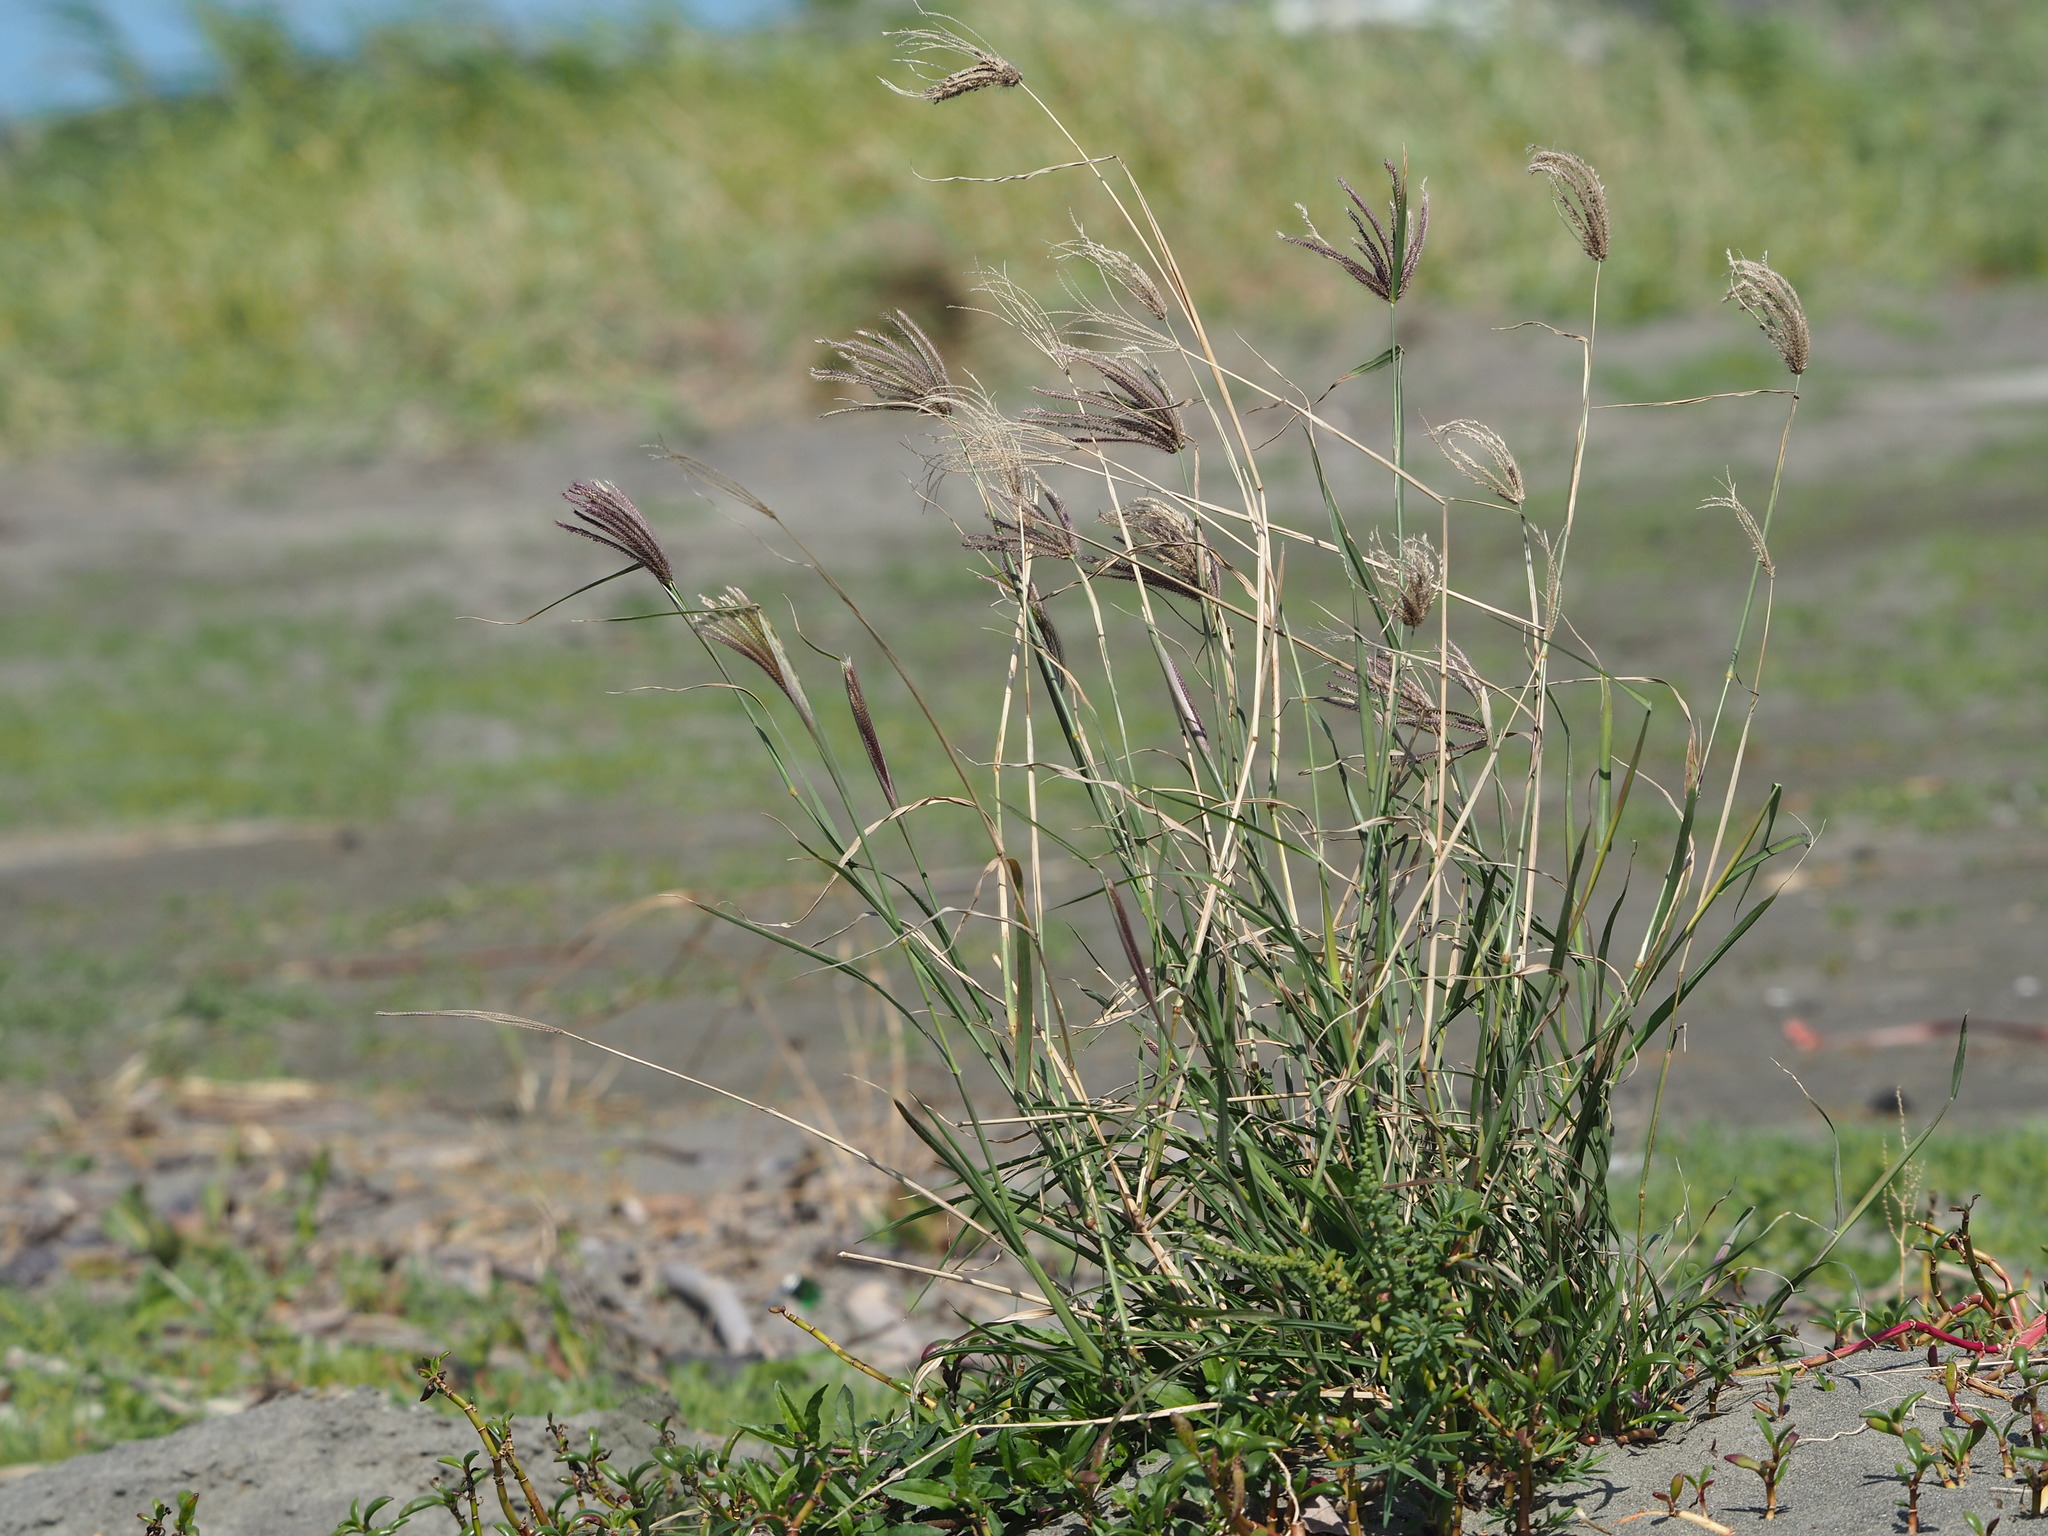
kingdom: Plantae
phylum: Tracheophyta
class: Liliopsida
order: Poales
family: Poaceae
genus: Chloris
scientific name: Chloris barbata
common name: Swollen fingergrass
